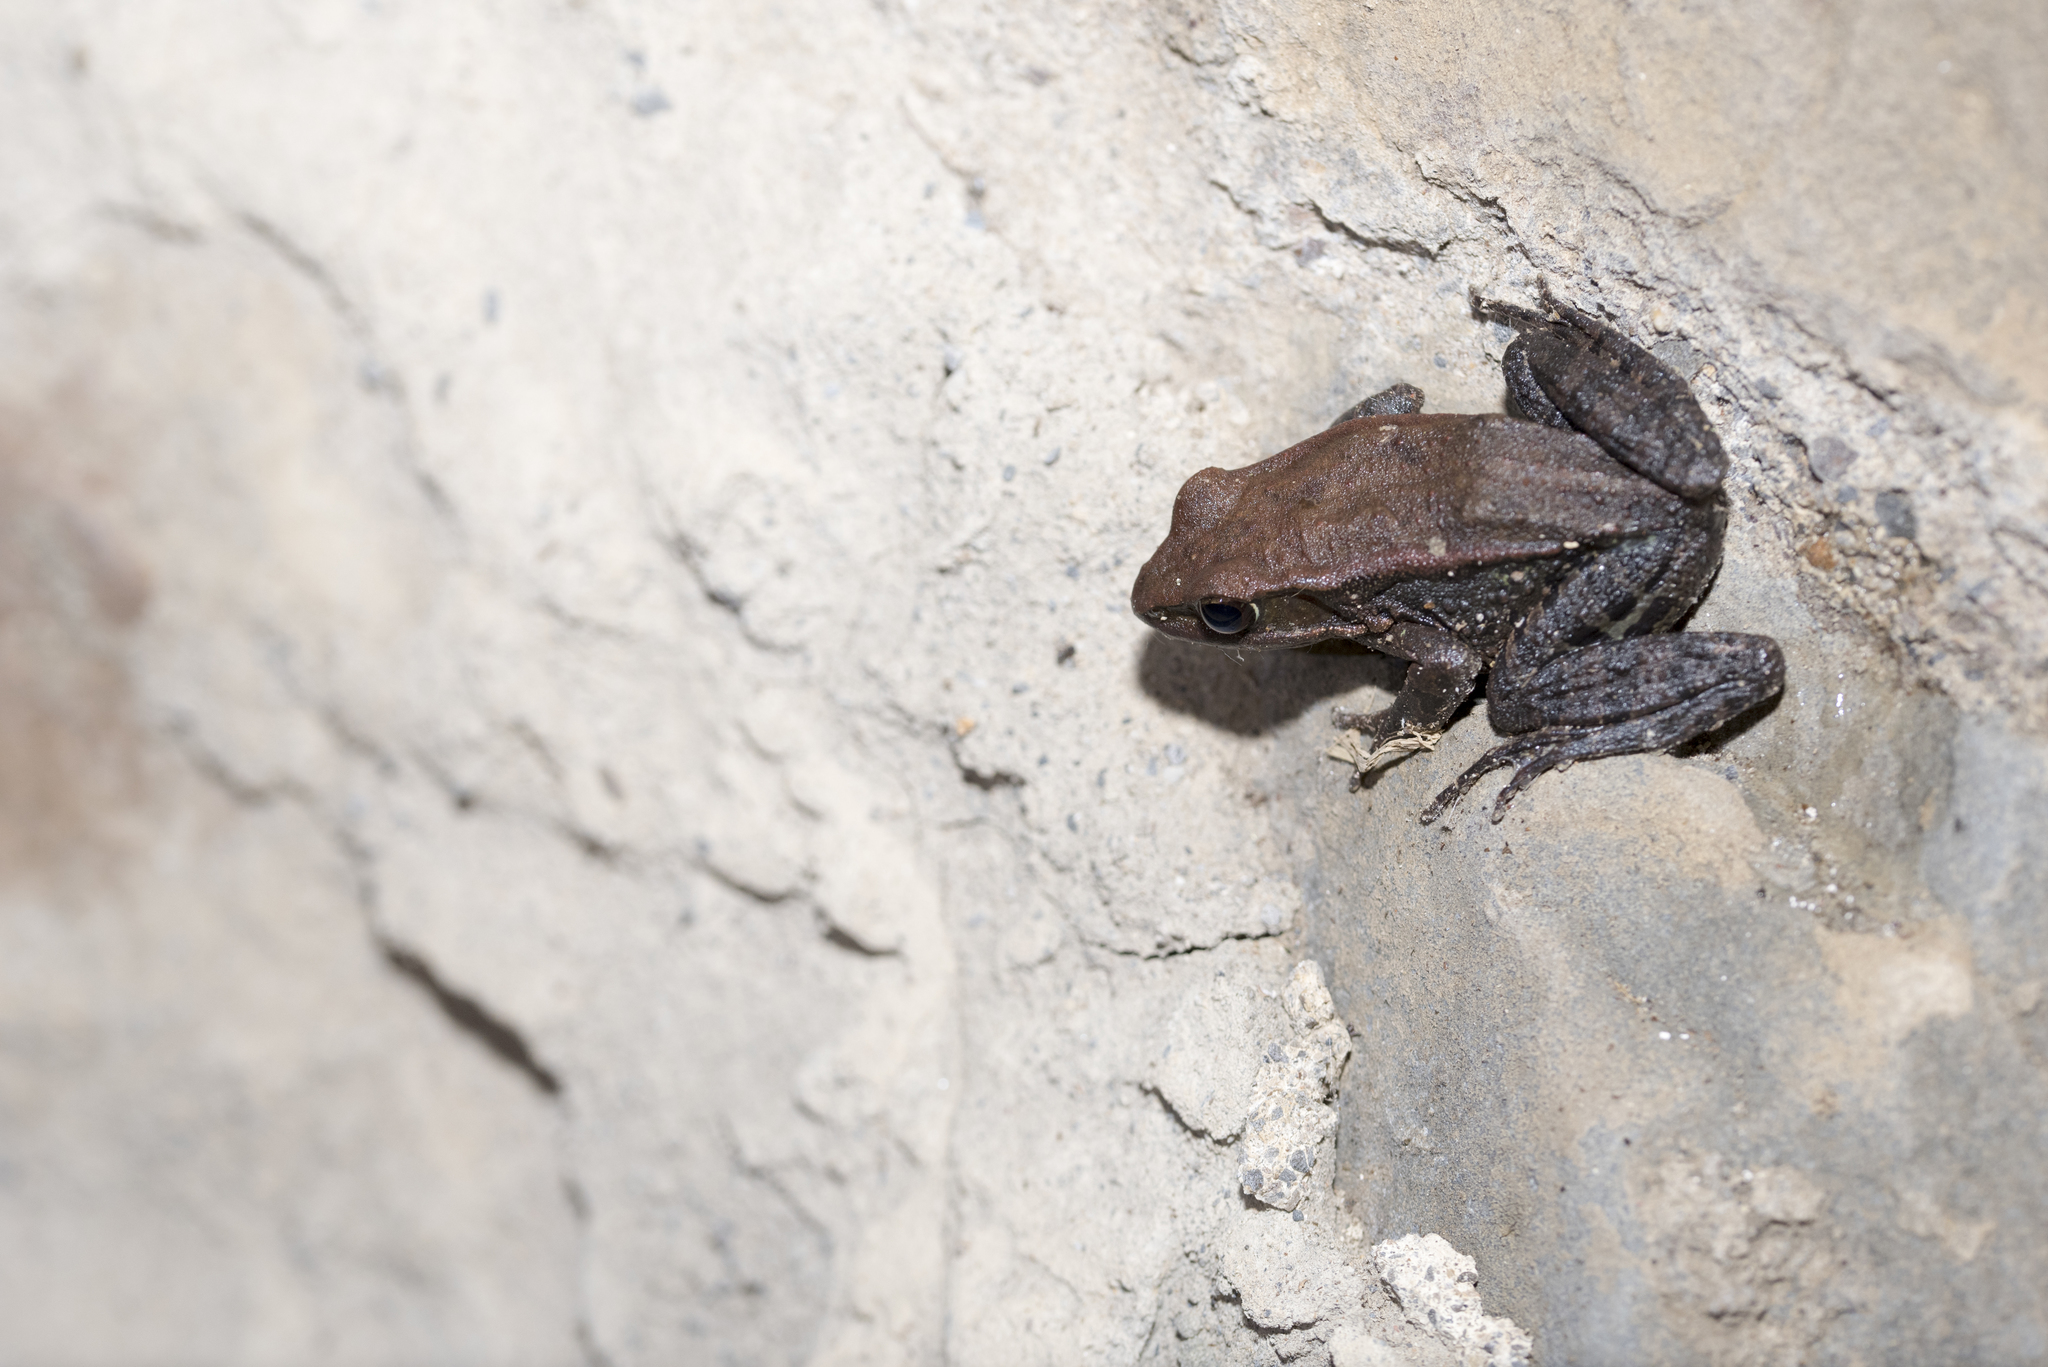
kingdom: Animalia
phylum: Chordata
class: Amphibia
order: Anura
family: Ranidae
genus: Hylarana
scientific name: Hylarana latouchii
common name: Broad-folded frog
